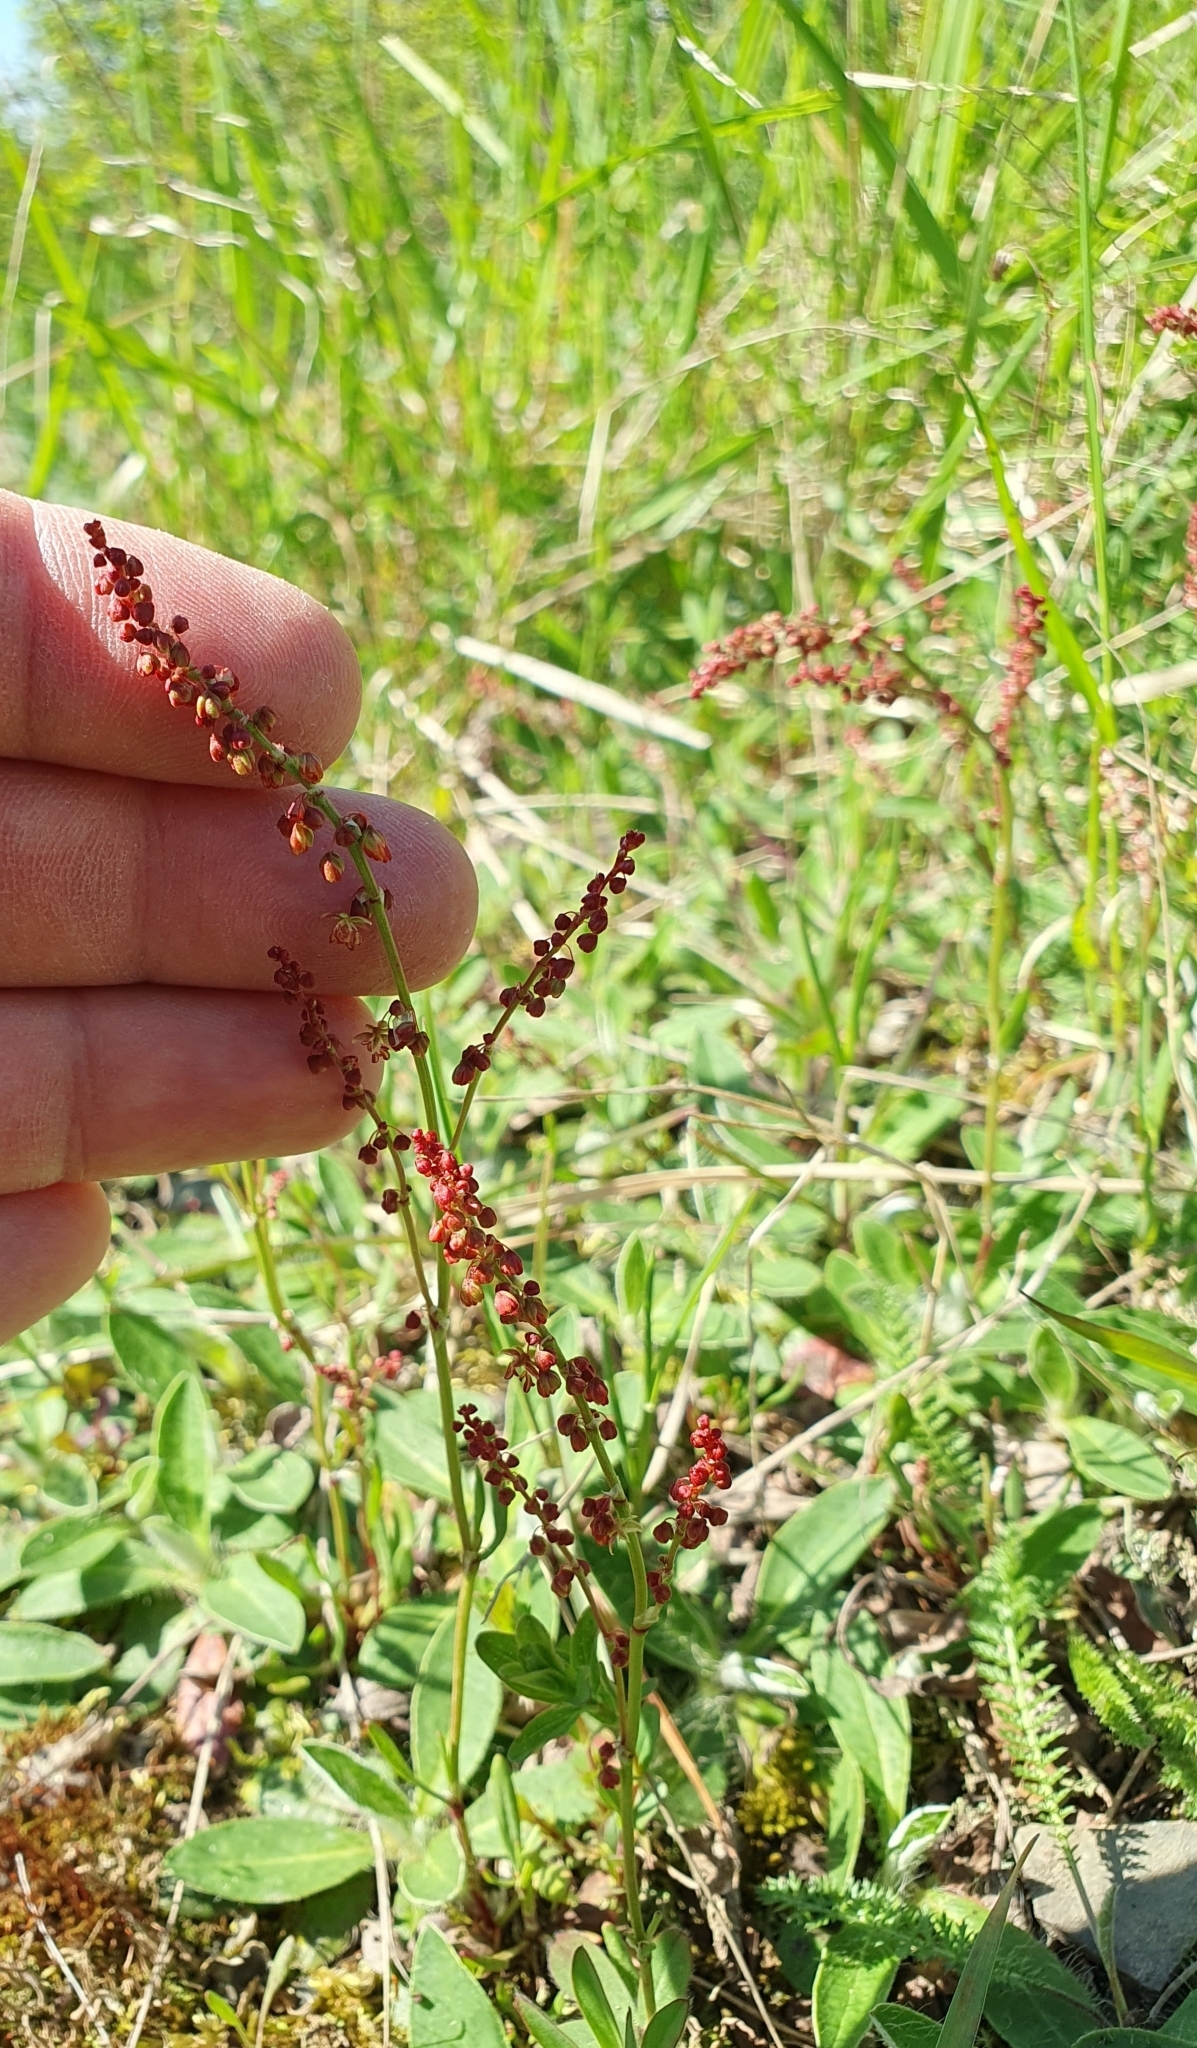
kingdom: Plantae
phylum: Tracheophyta
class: Magnoliopsida
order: Caryophyllales
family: Polygonaceae
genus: Rumex
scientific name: Rumex acetosella
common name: Common sheep sorrel
